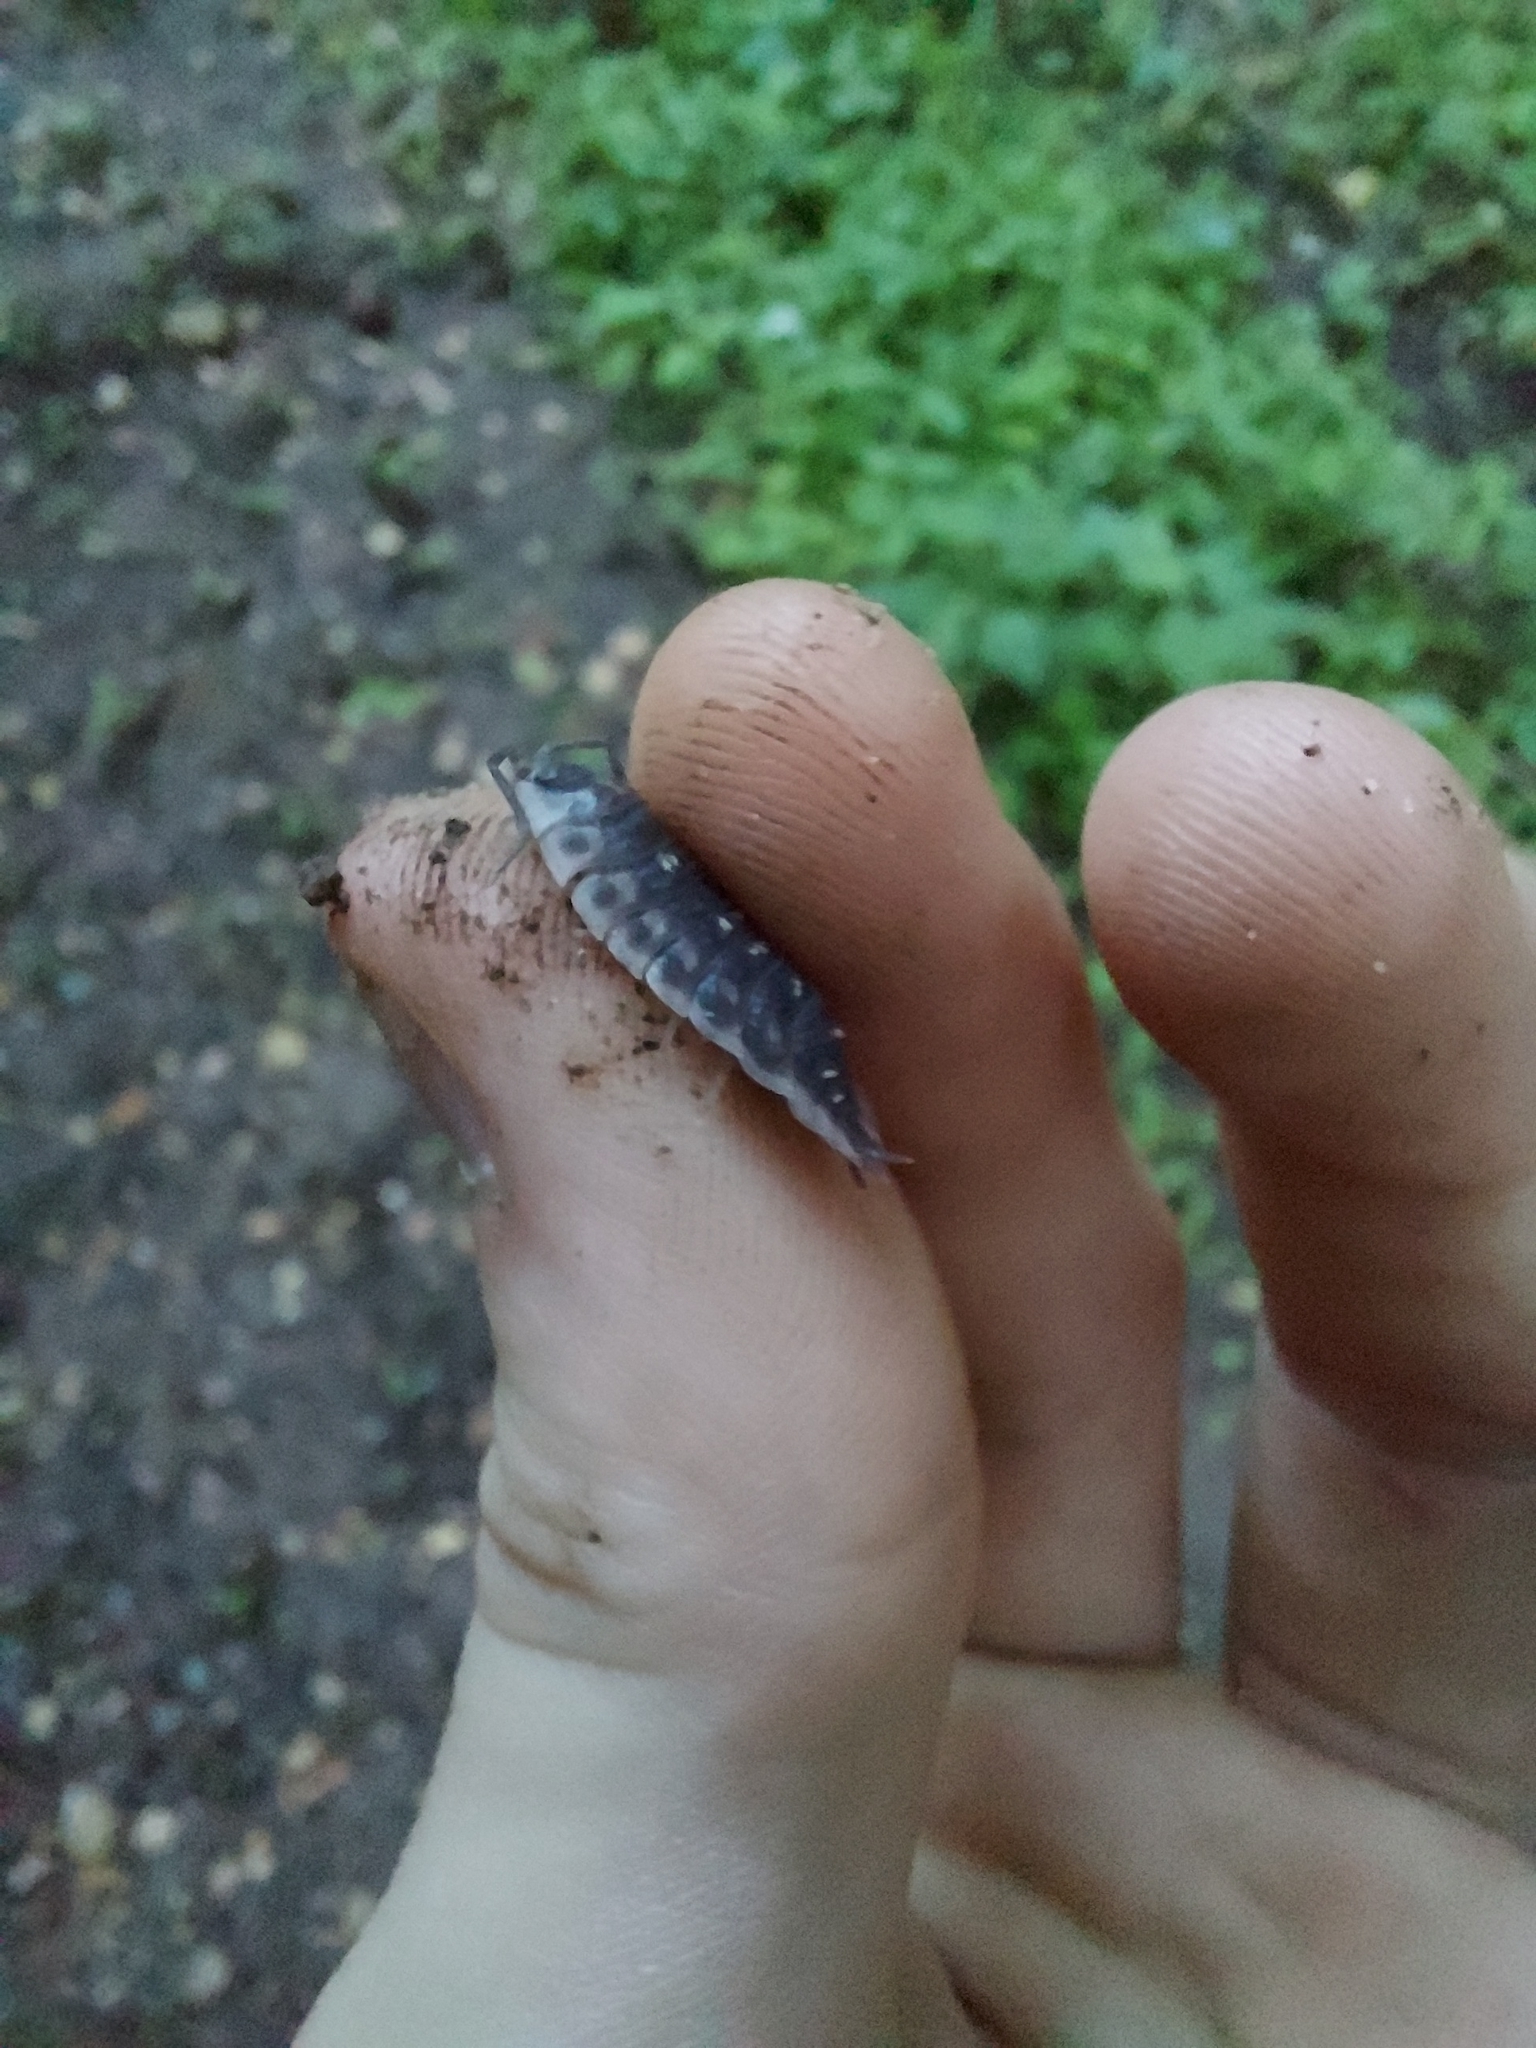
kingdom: Animalia
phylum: Arthropoda
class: Malacostraca
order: Isopoda
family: Oniscidae
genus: Oniscus
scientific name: Oniscus asellus
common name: Common shiny woodlouse
